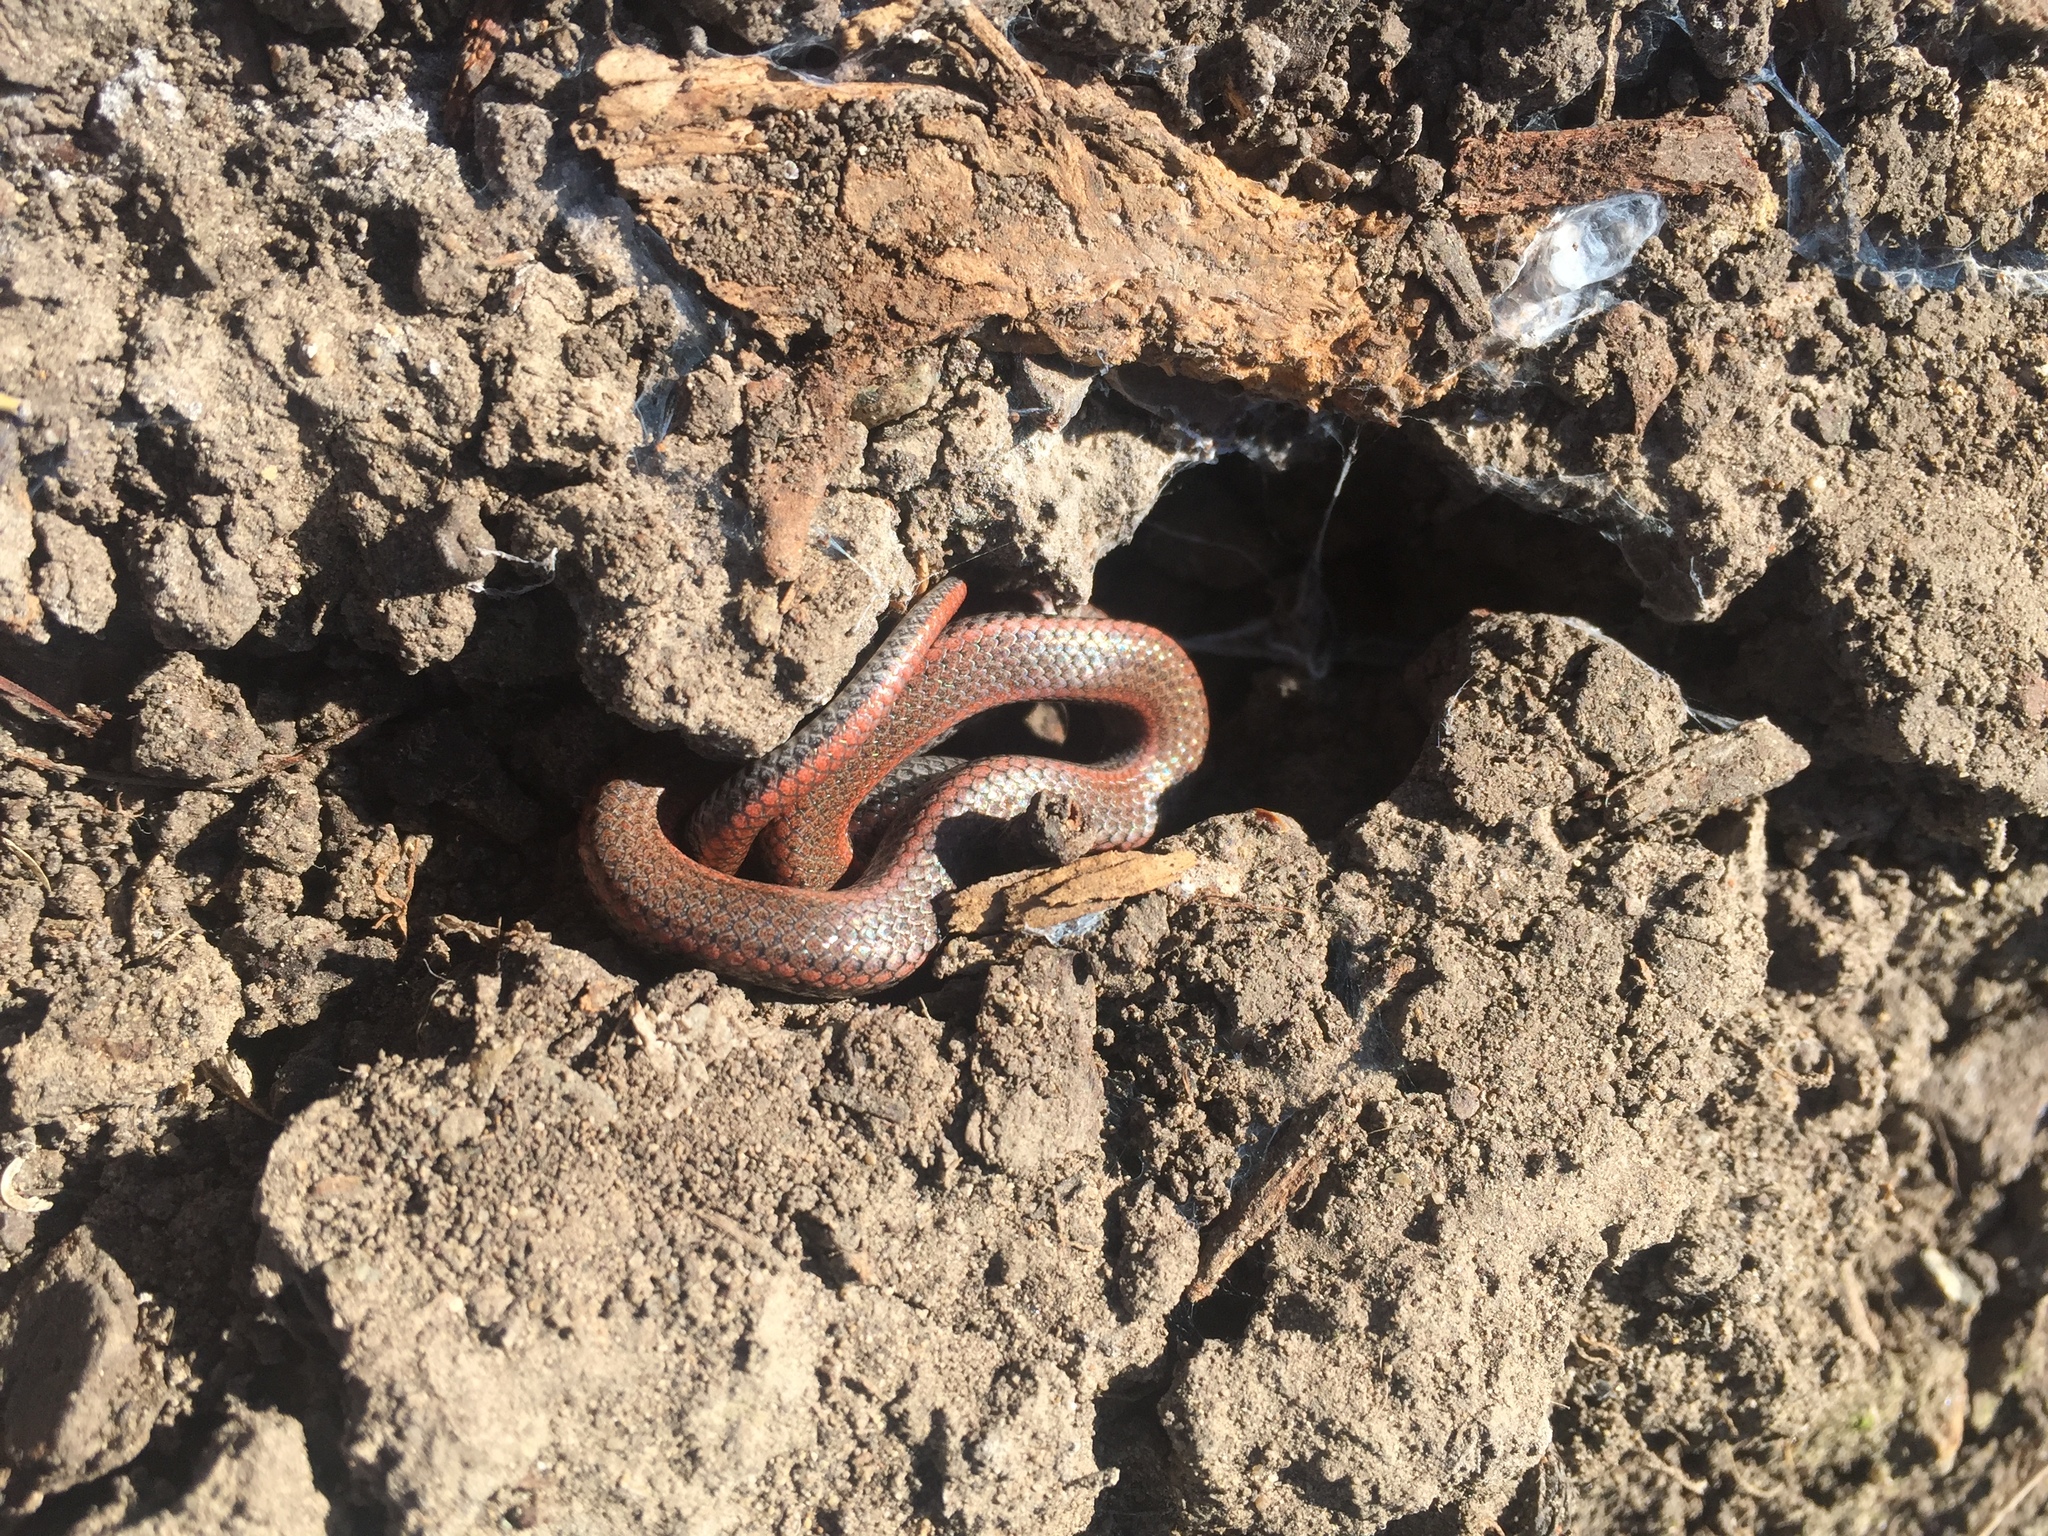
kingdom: Animalia
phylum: Chordata
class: Squamata
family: Colubridae
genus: Contia
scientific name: Contia tenuis
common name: Sharptail snake
